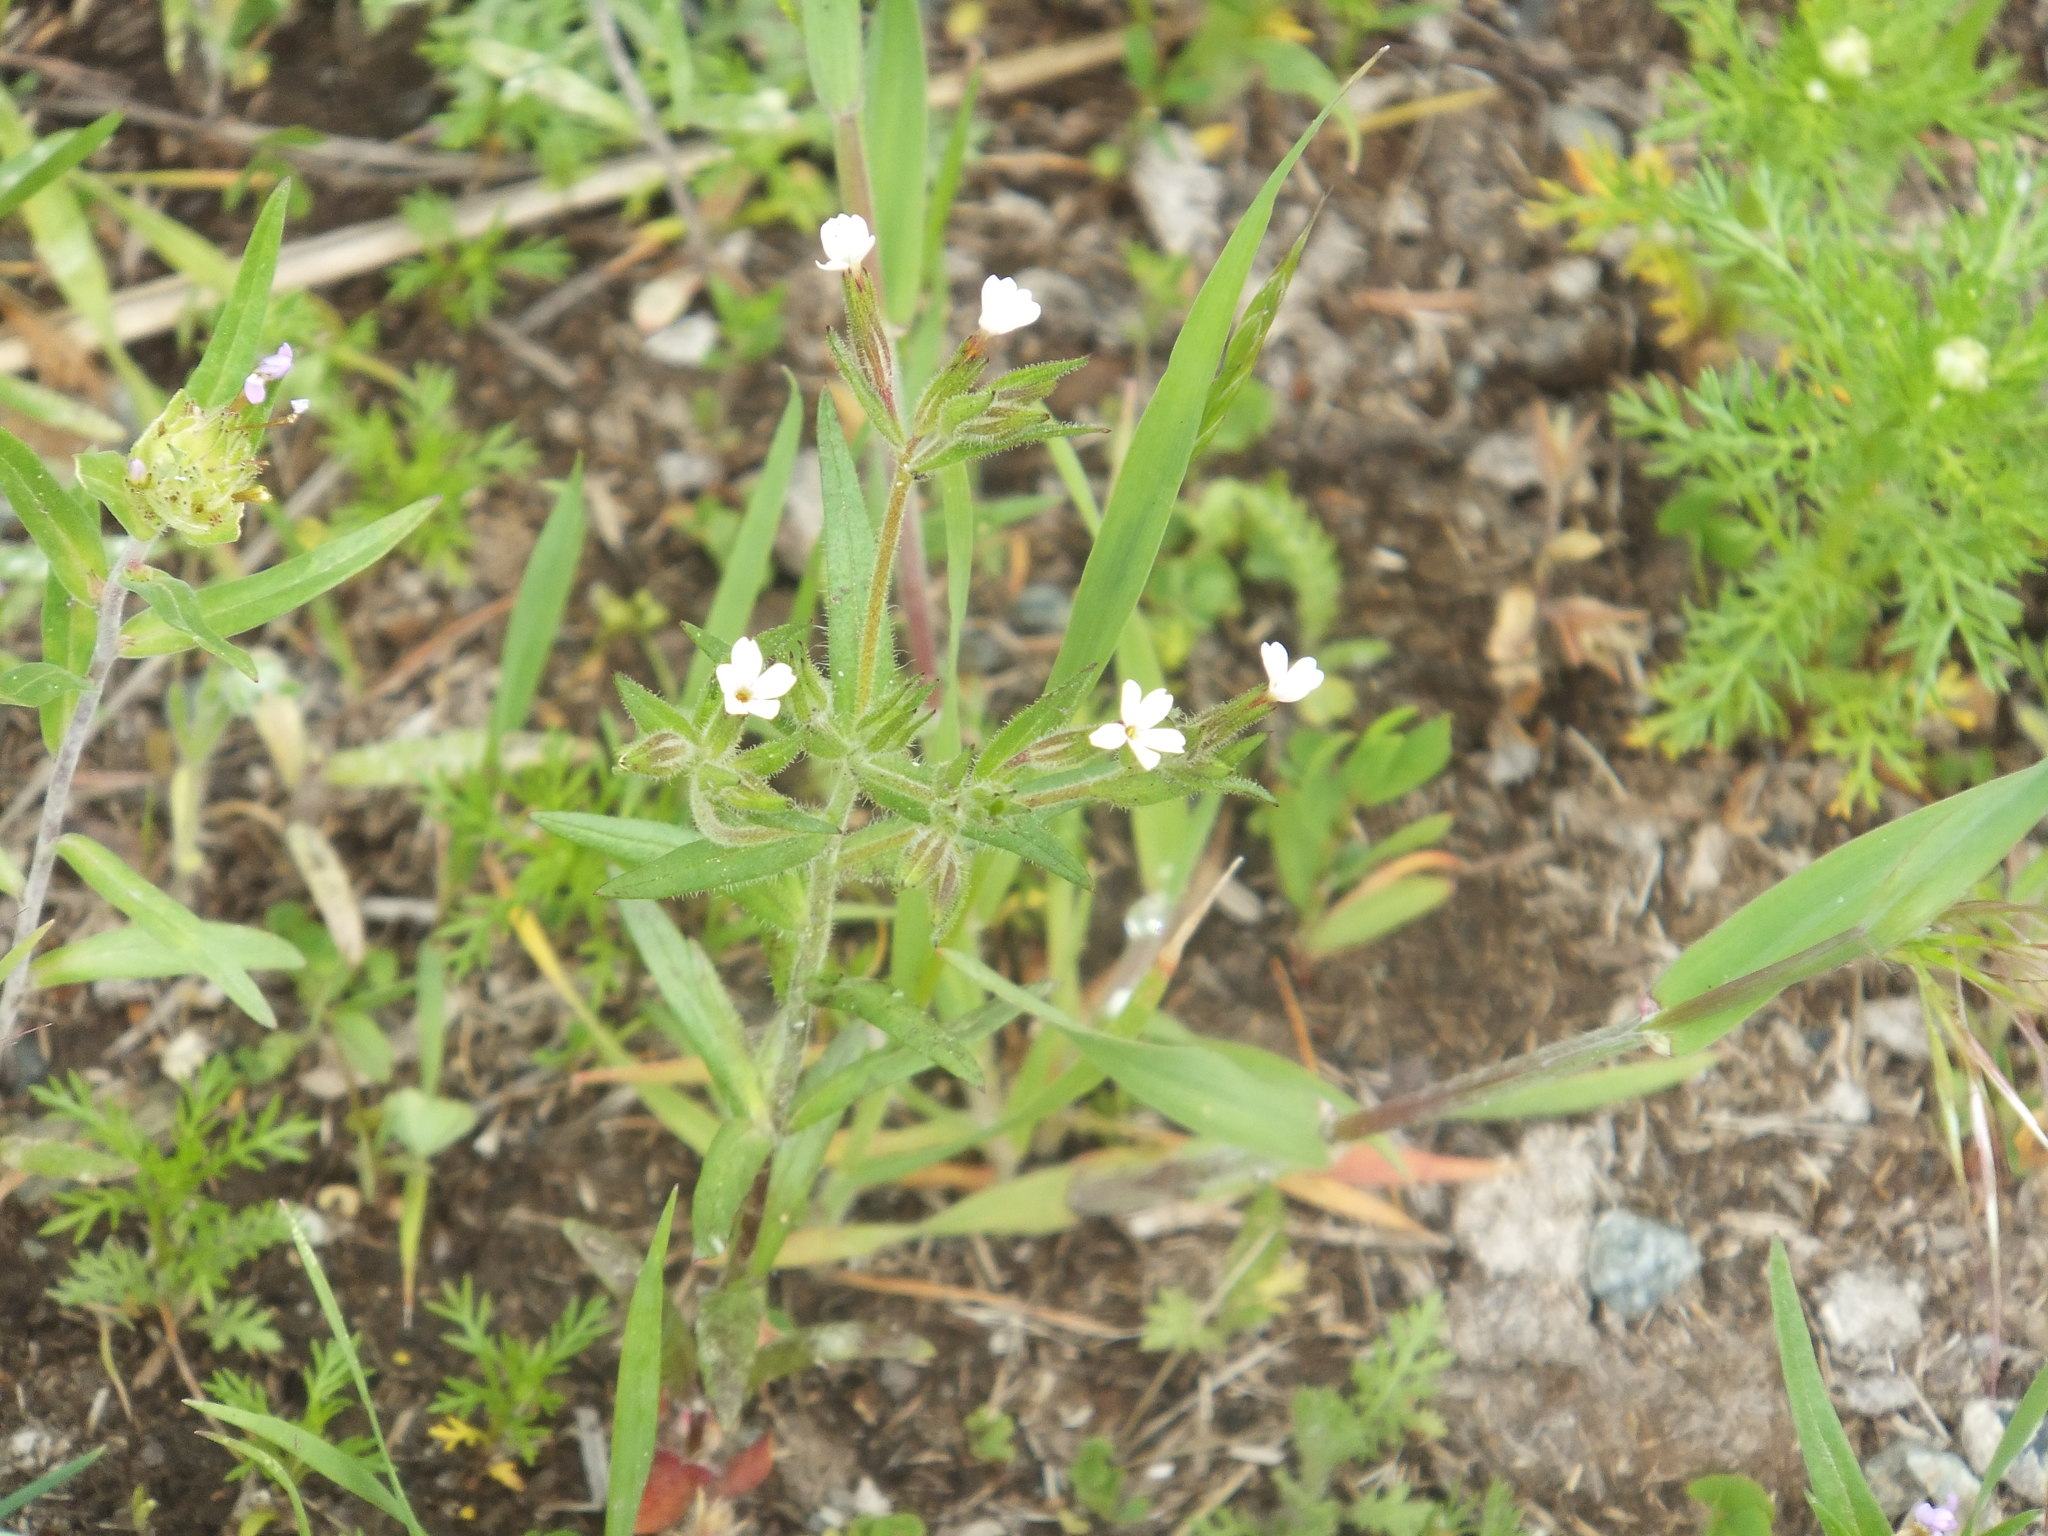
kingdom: Plantae
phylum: Tracheophyta
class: Magnoliopsida
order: Ericales
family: Polemoniaceae
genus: Phlox
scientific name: Phlox gracilis
